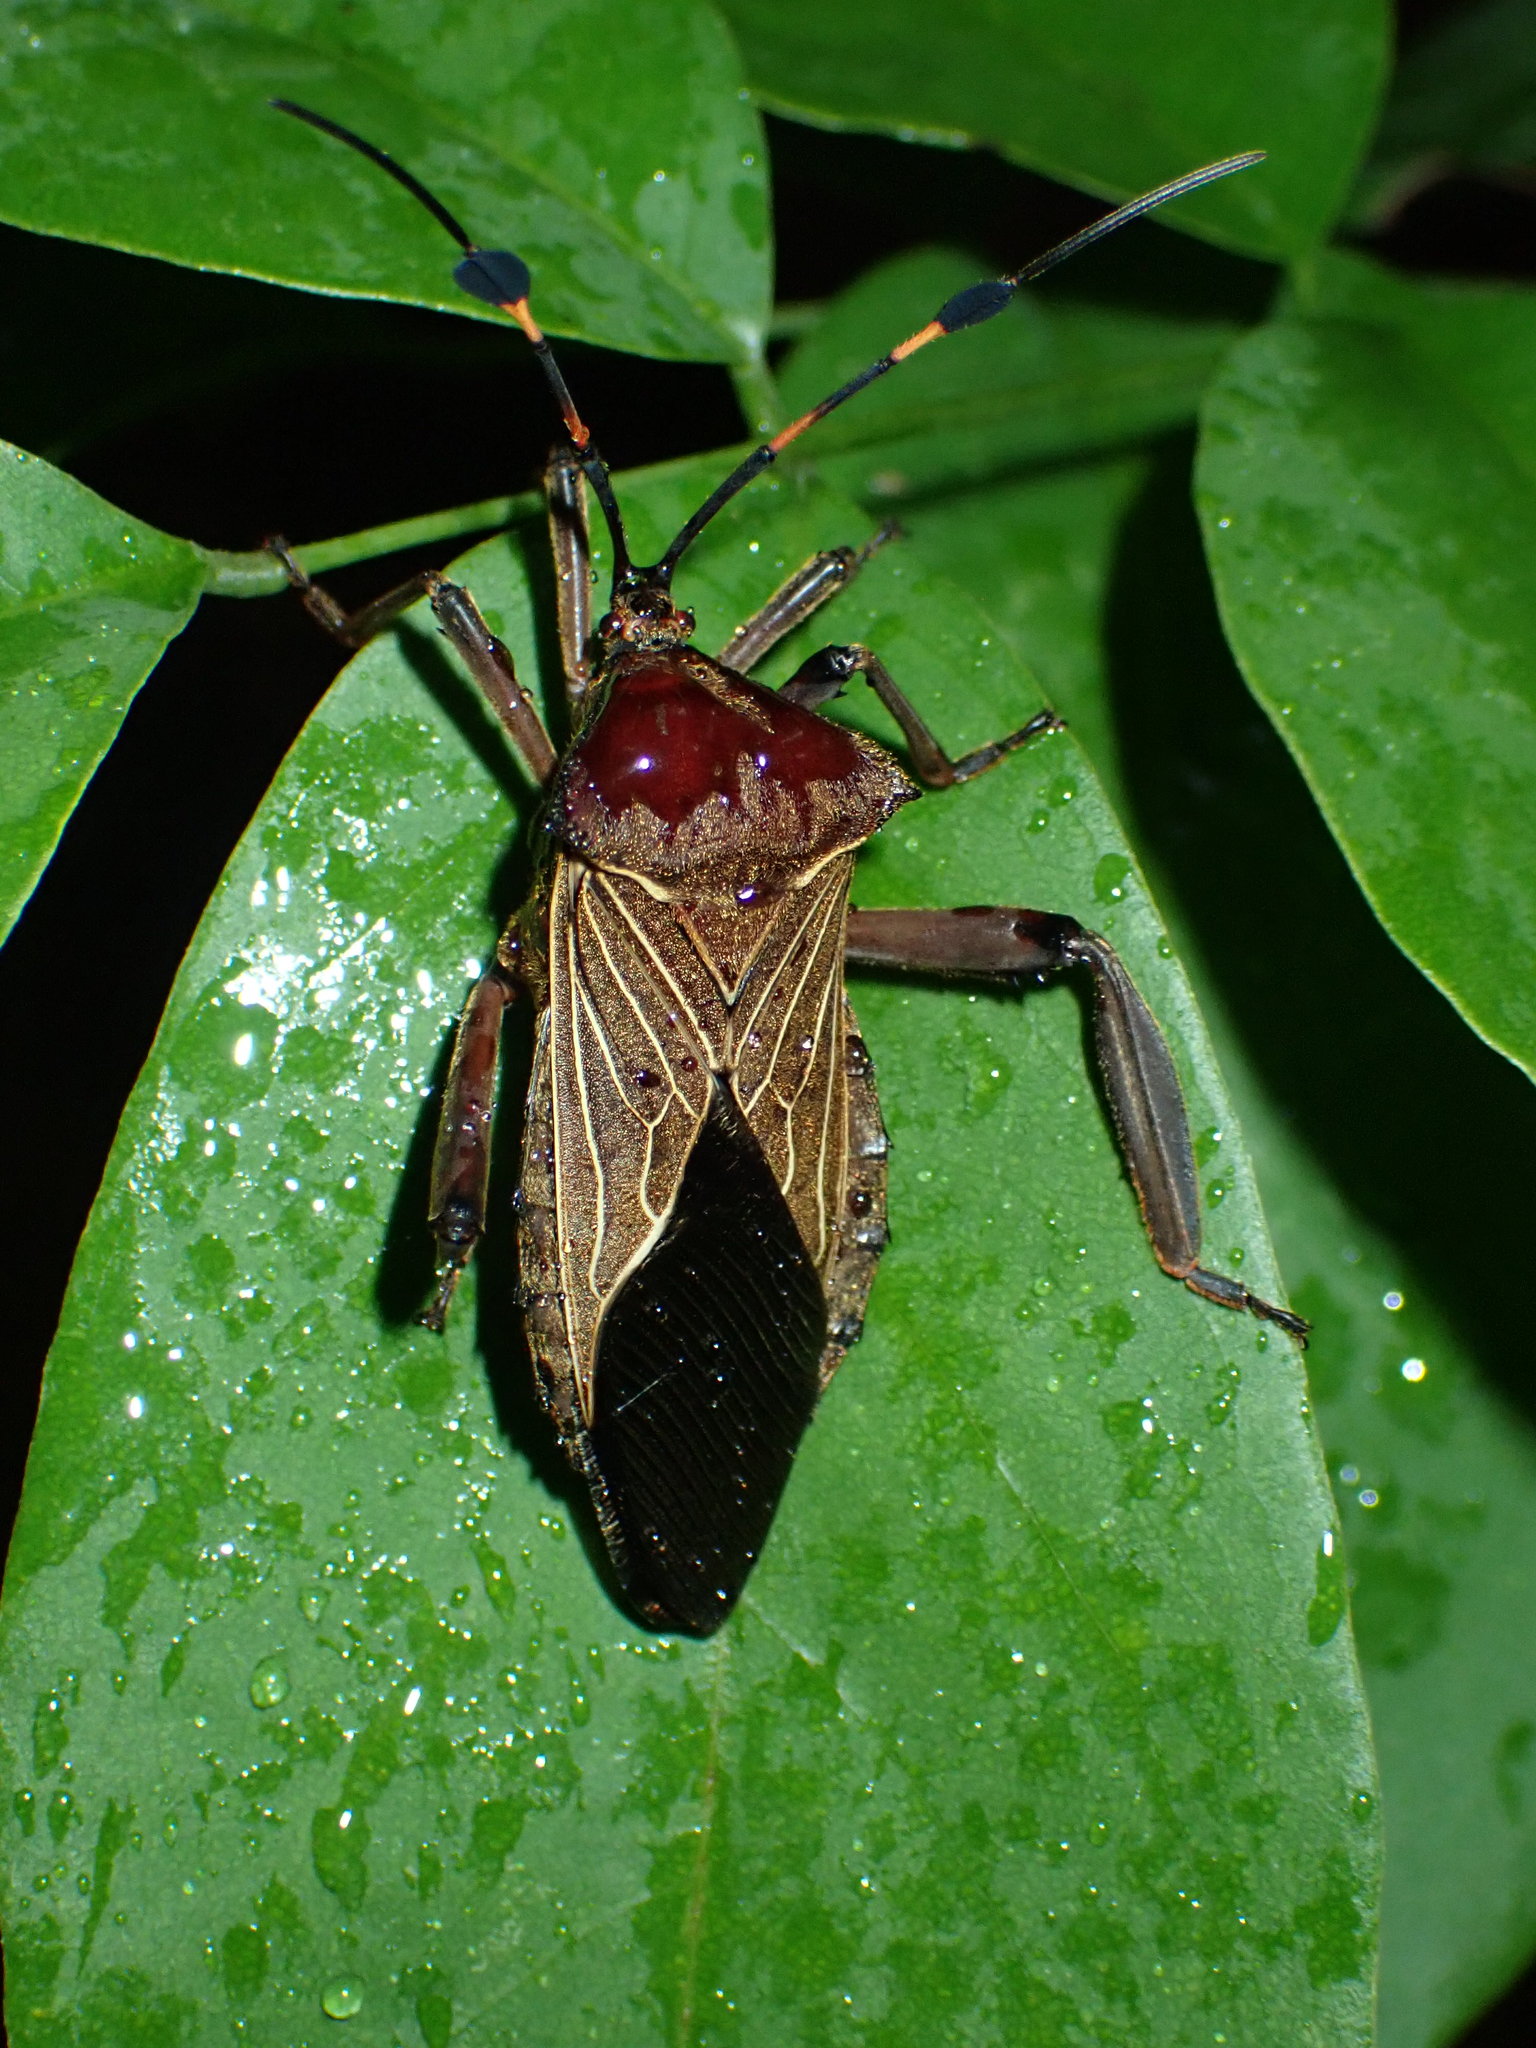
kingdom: Animalia
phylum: Arthropoda
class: Insecta
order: Hemiptera
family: Coreidae
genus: Thasus
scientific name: Thasus acutangulus
